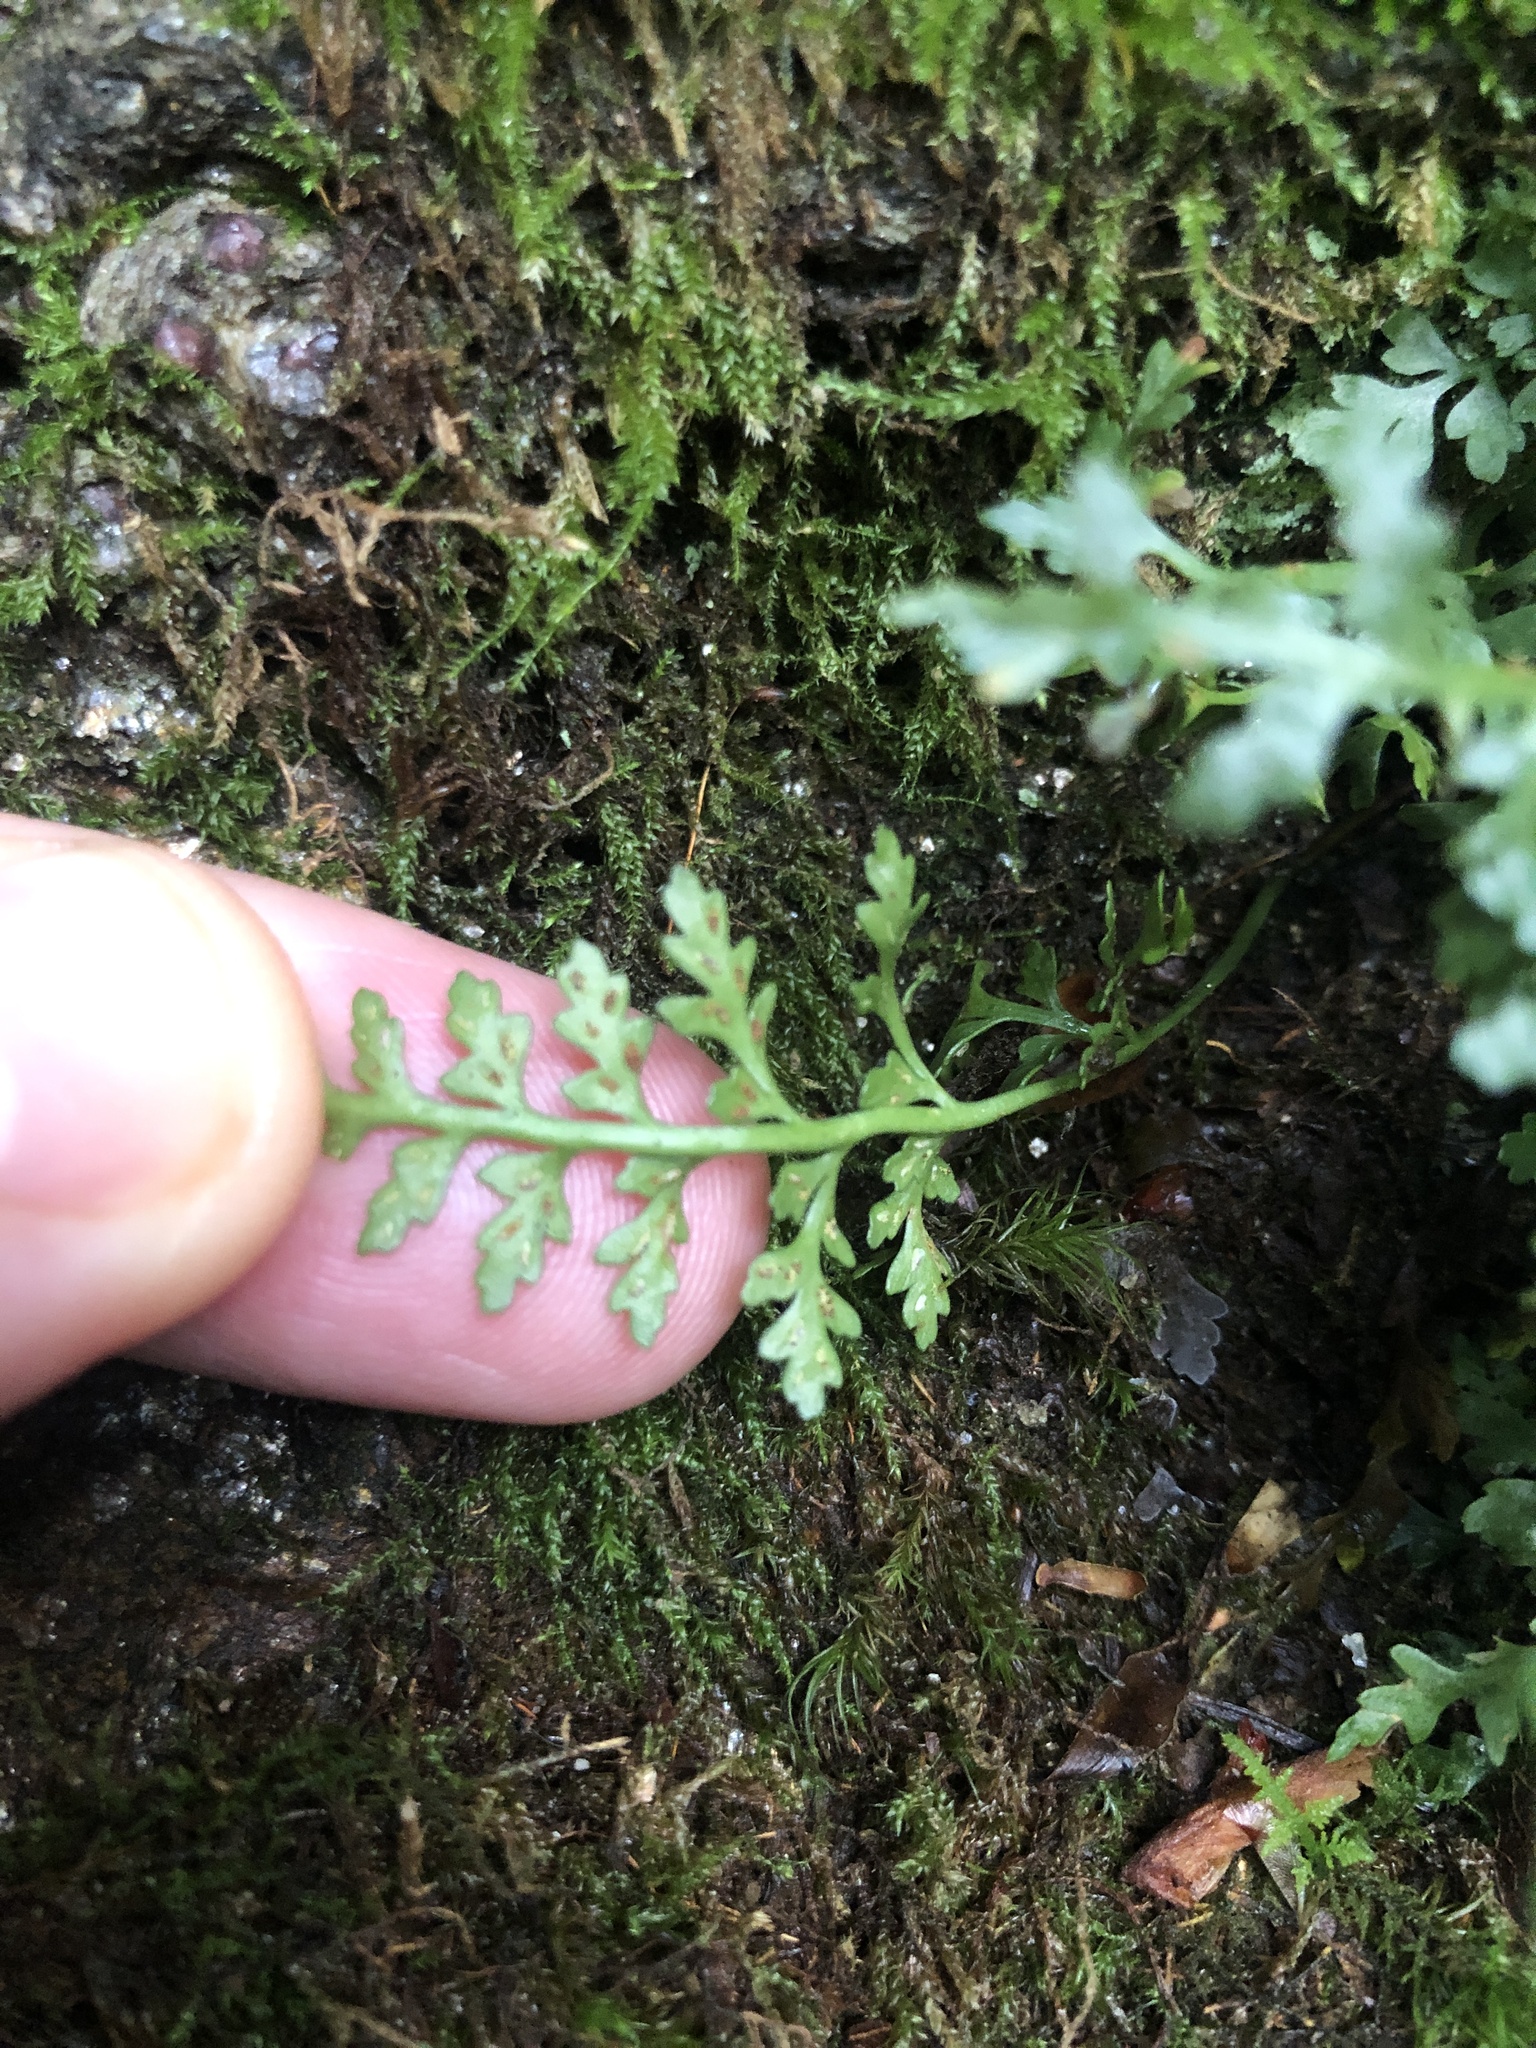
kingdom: Plantae
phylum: Tracheophyta
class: Polypodiopsida
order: Polypodiales
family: Aspleniaceae
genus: Asplenium
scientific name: Asplenium montanum
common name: Mountain spleenwort
